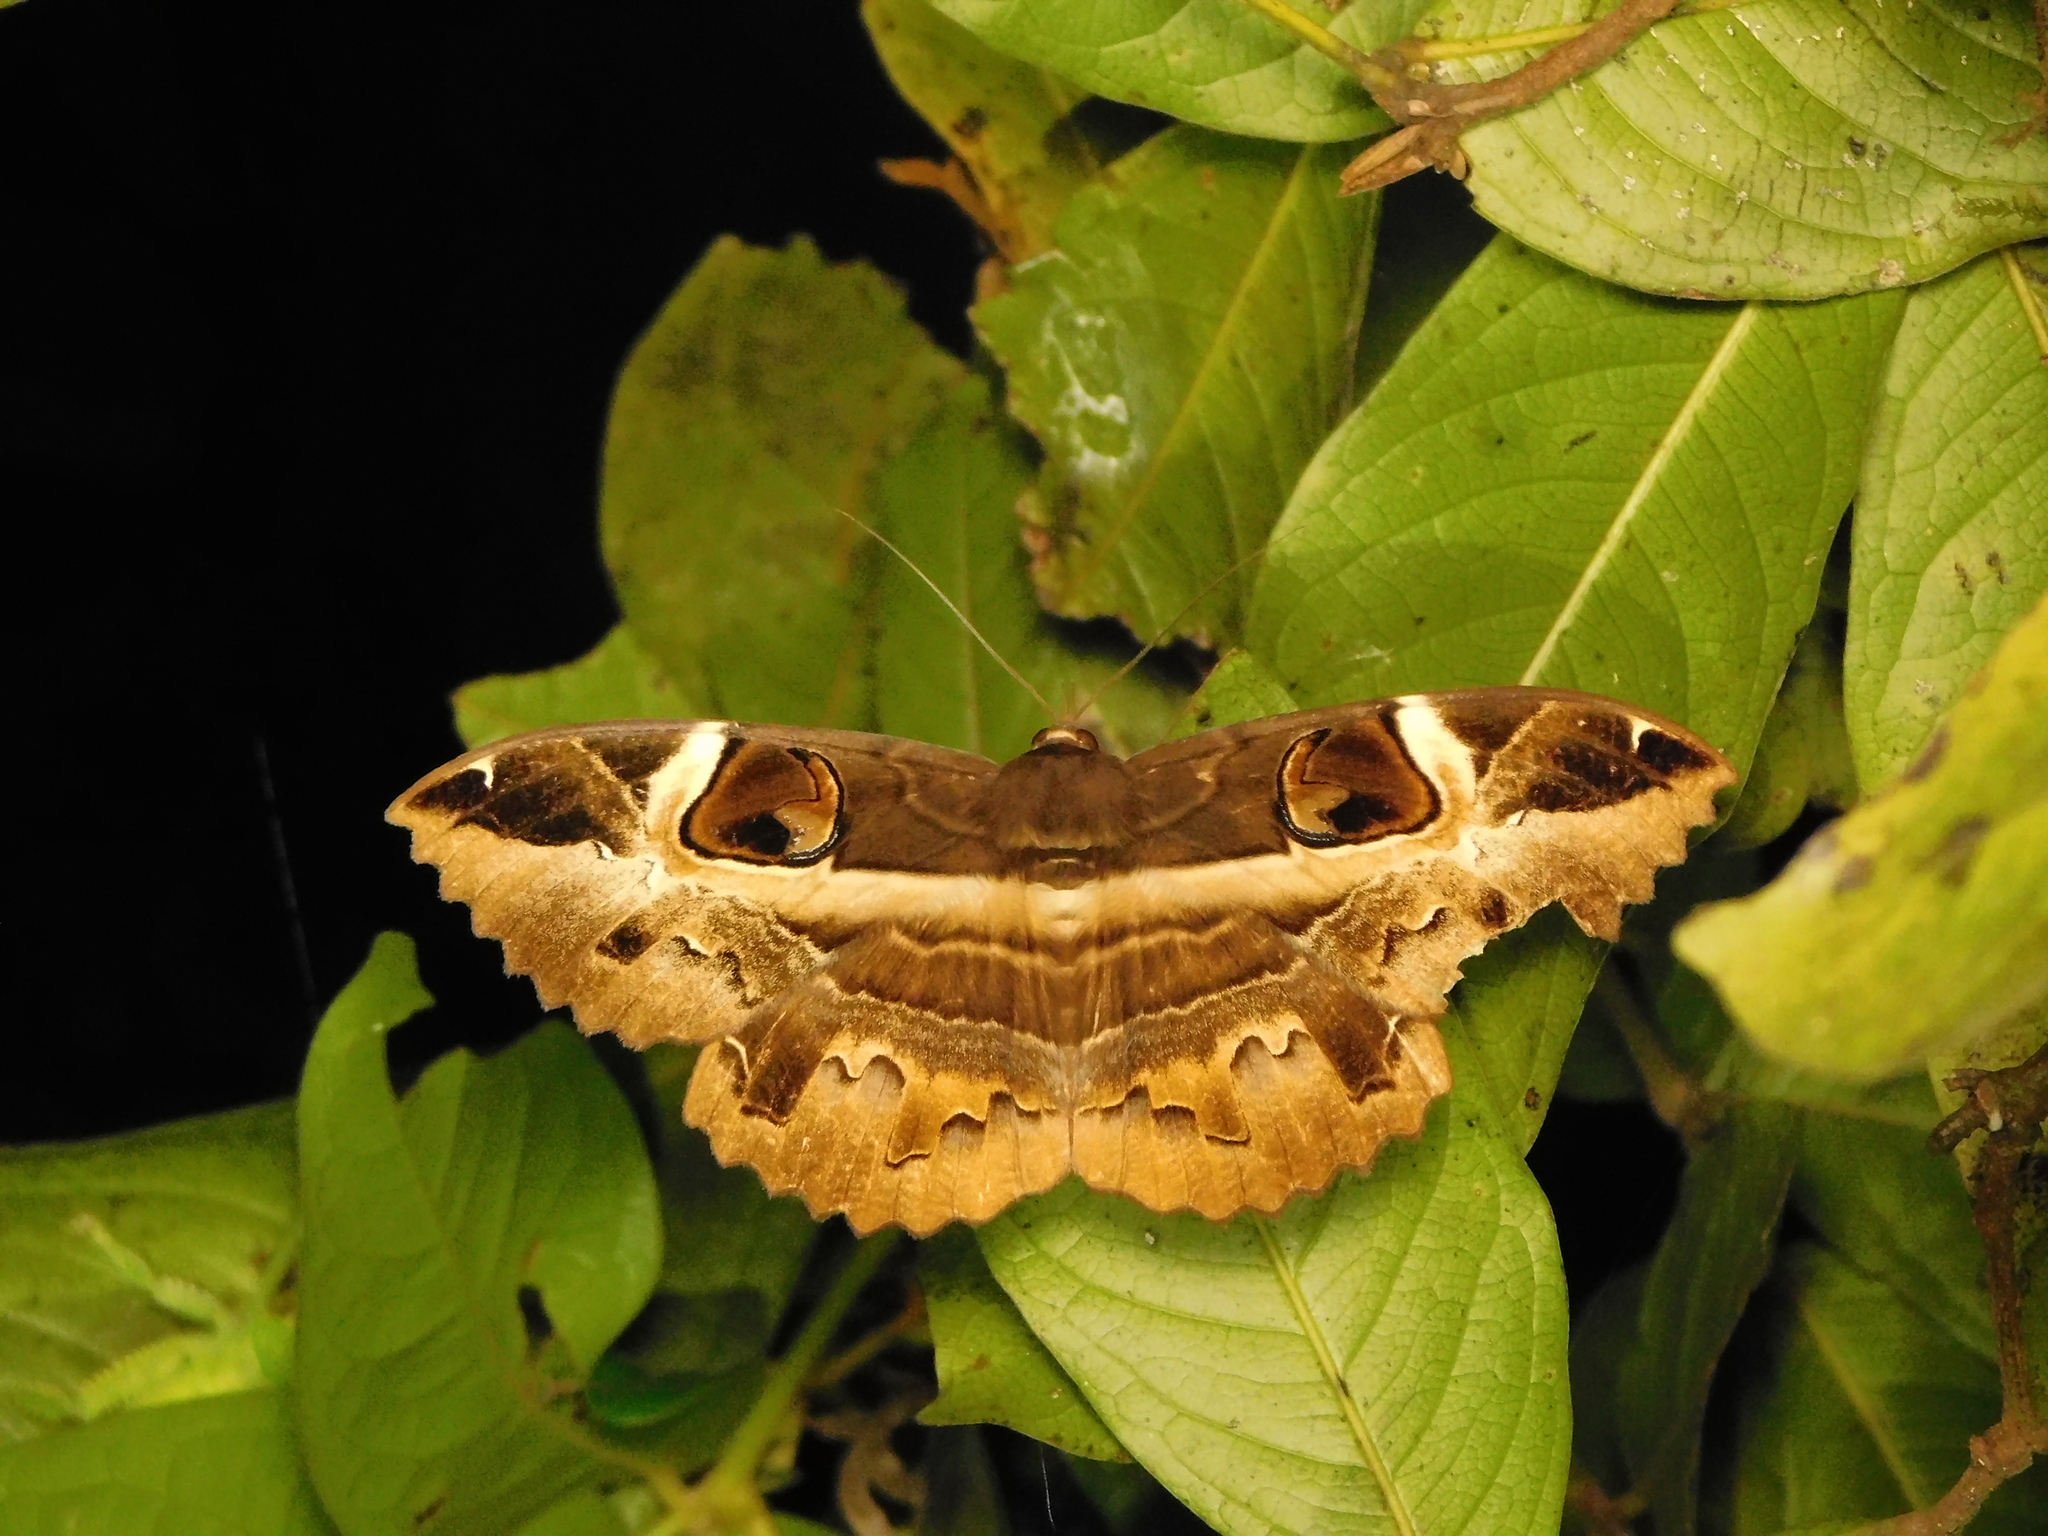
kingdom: Animalia
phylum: Arthropoda
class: Insecta
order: Lepidoptera
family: Erebidae
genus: Erebus
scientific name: Erebus ephesperis
